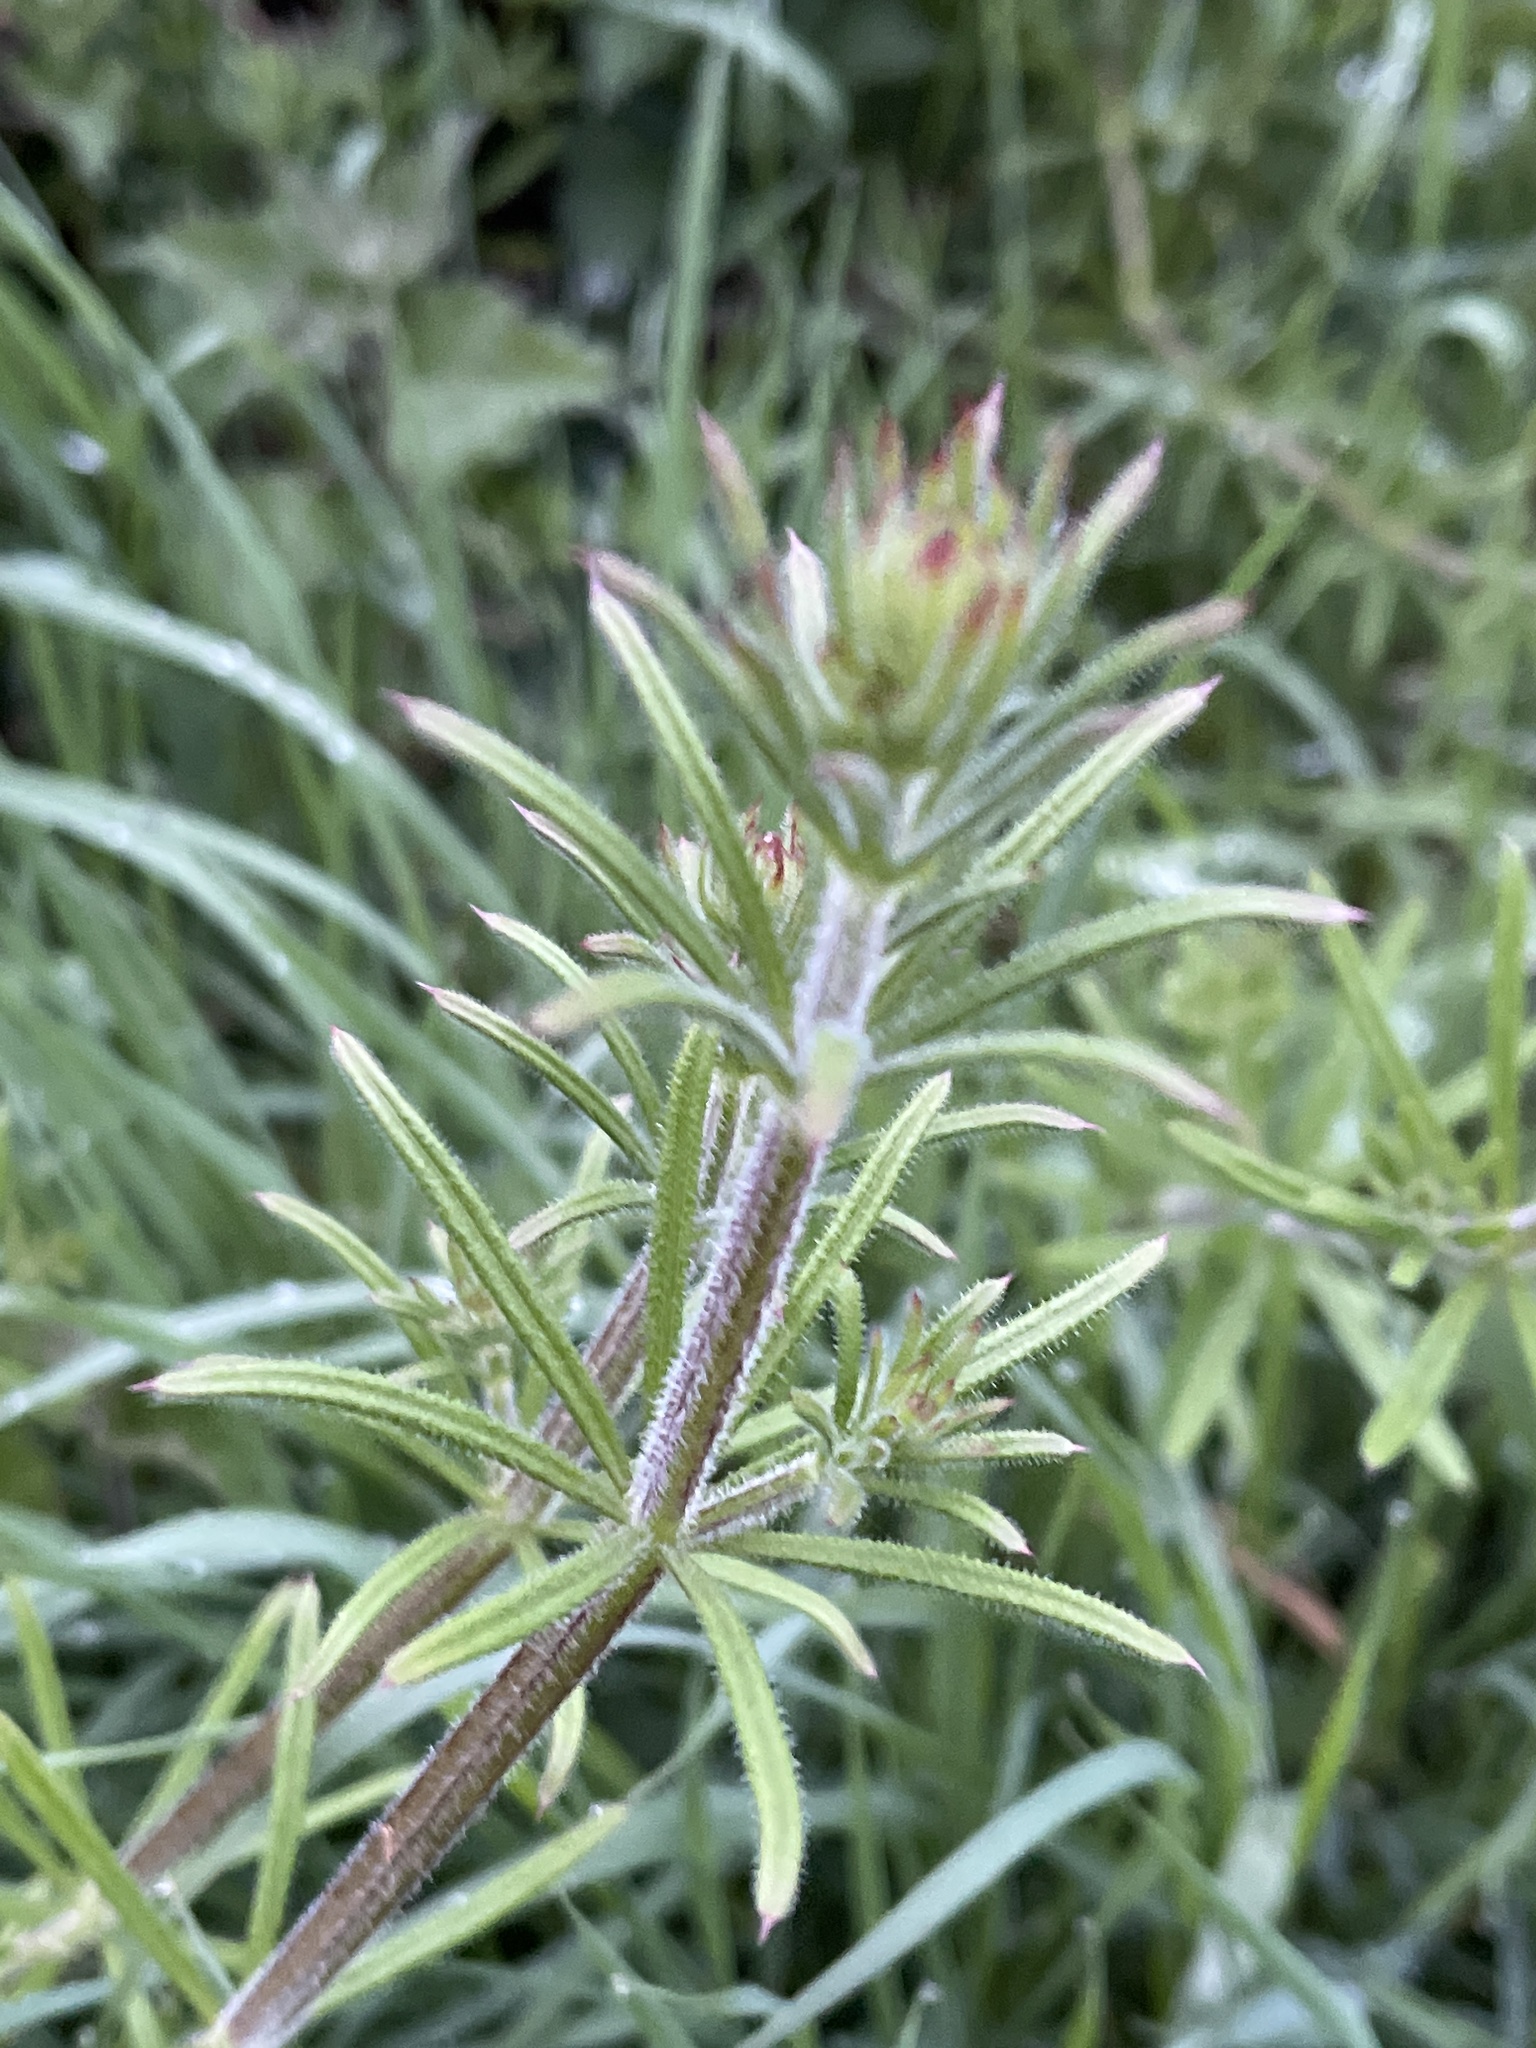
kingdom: Plantae
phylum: Tracheophyta
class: Magnoliopsida
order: Gentianales
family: Rubiaceae
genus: Galium
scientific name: Galium aparine
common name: Cleavers
